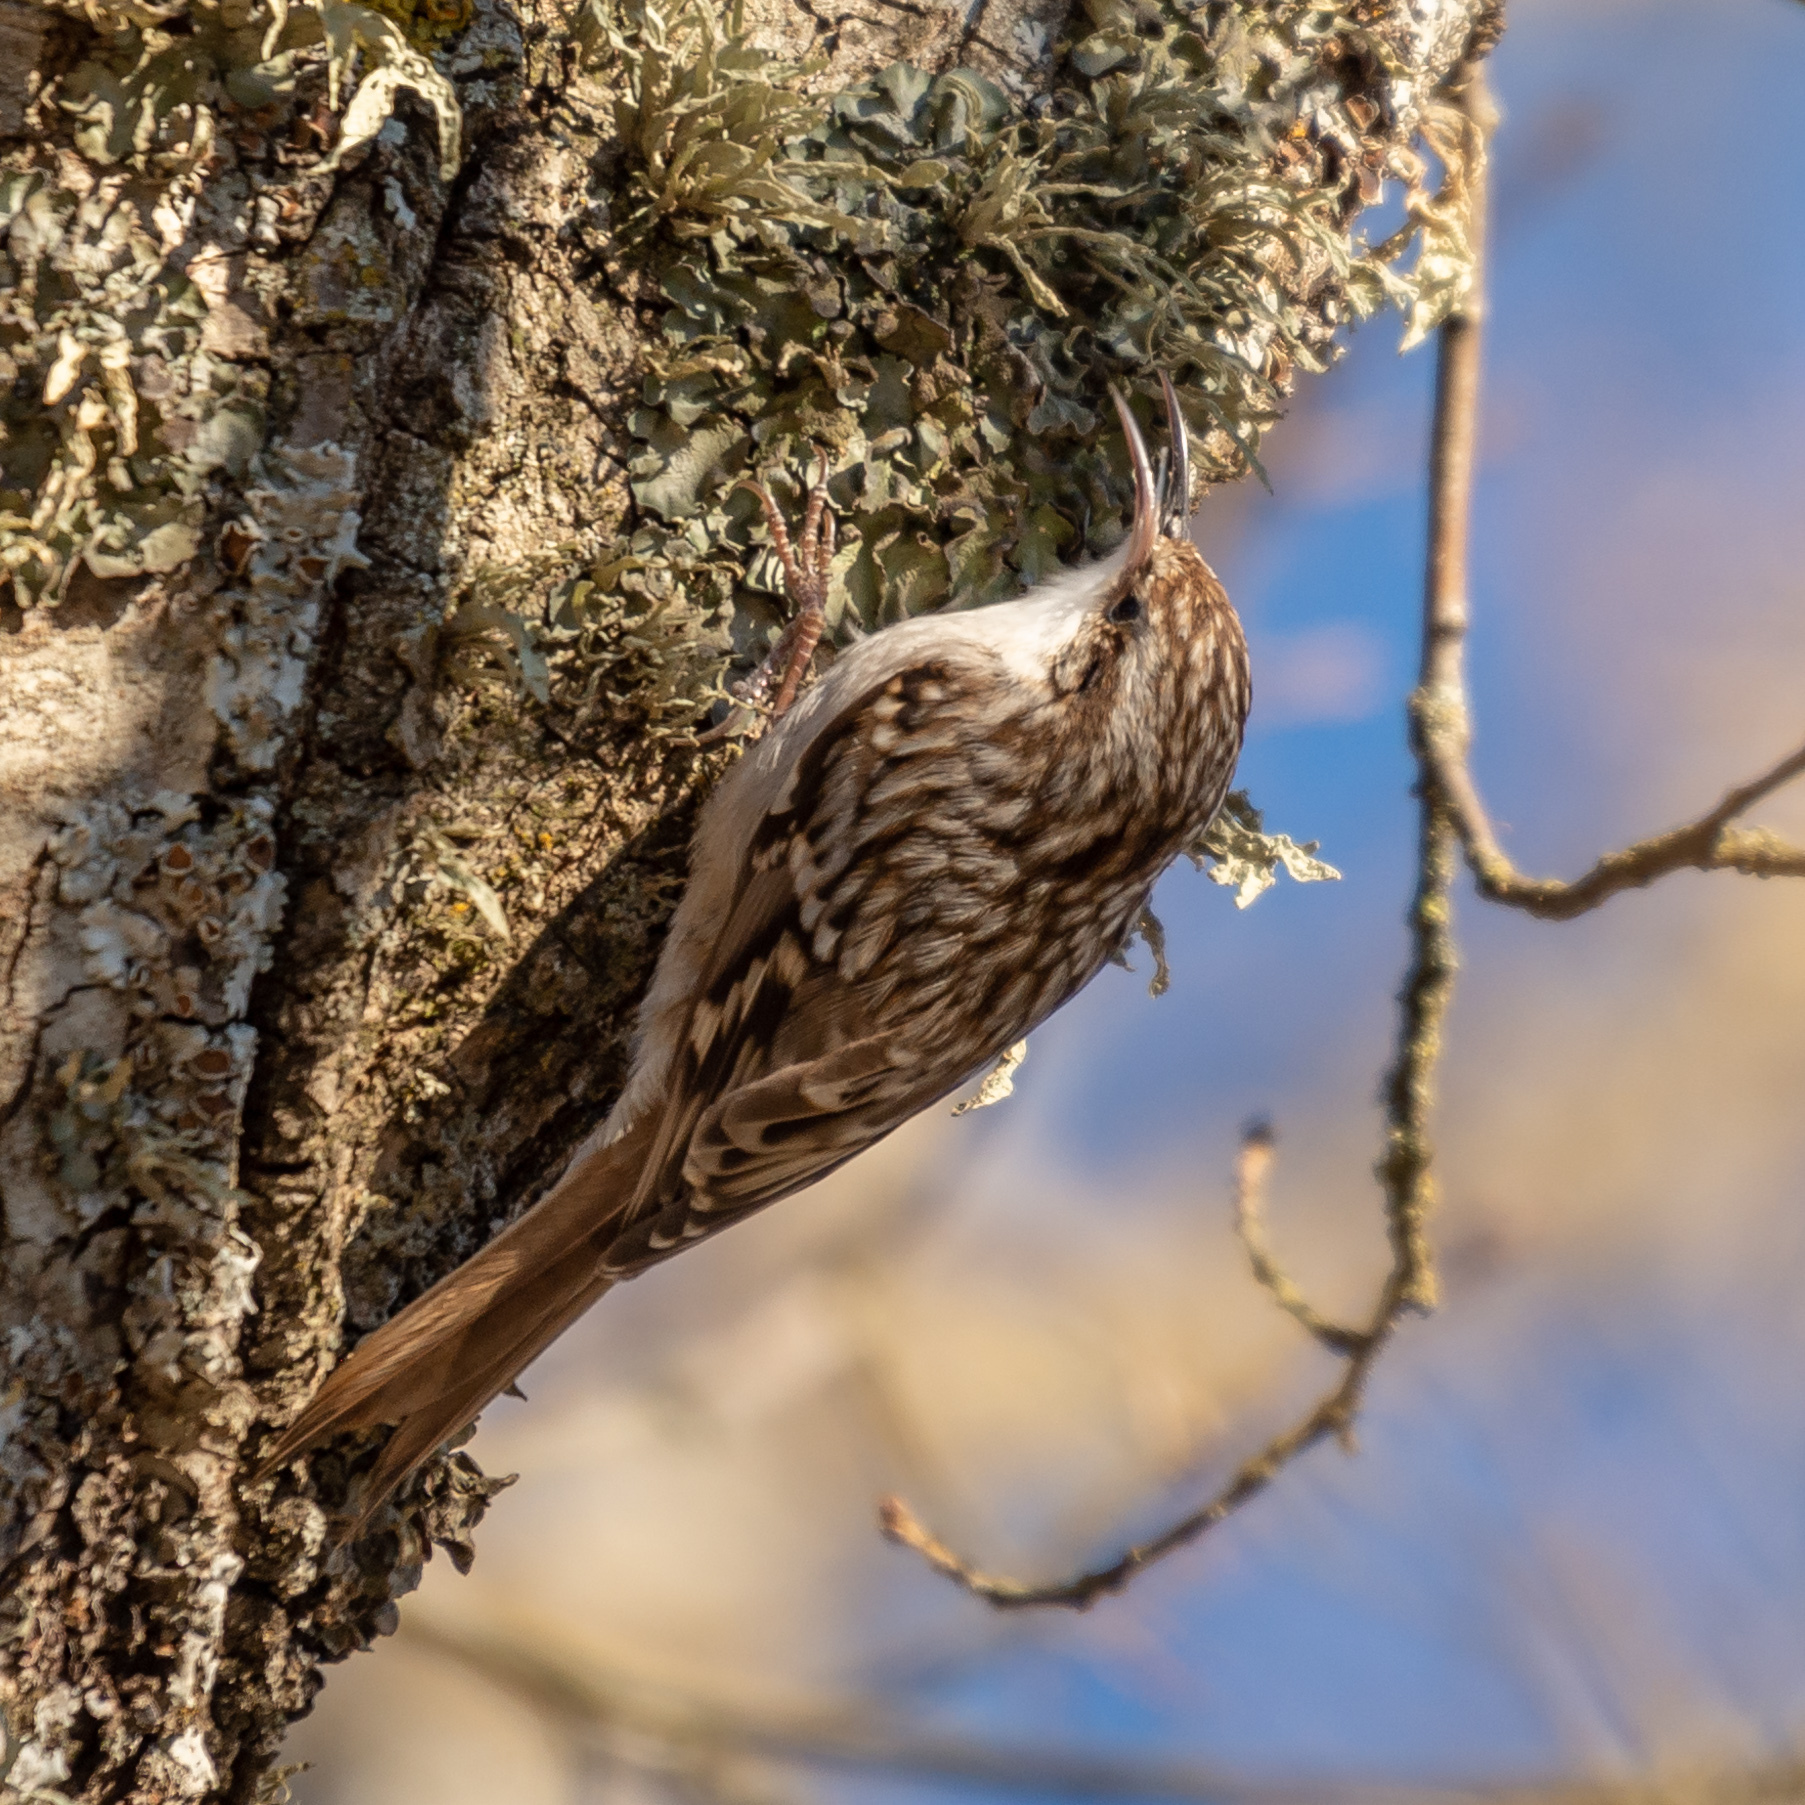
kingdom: Animalia
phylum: Chordata
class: Aves
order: Passeriformes
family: Certhiidae
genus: Certhia
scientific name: Certhia brachydactyla
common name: Short-toed treecreeper
